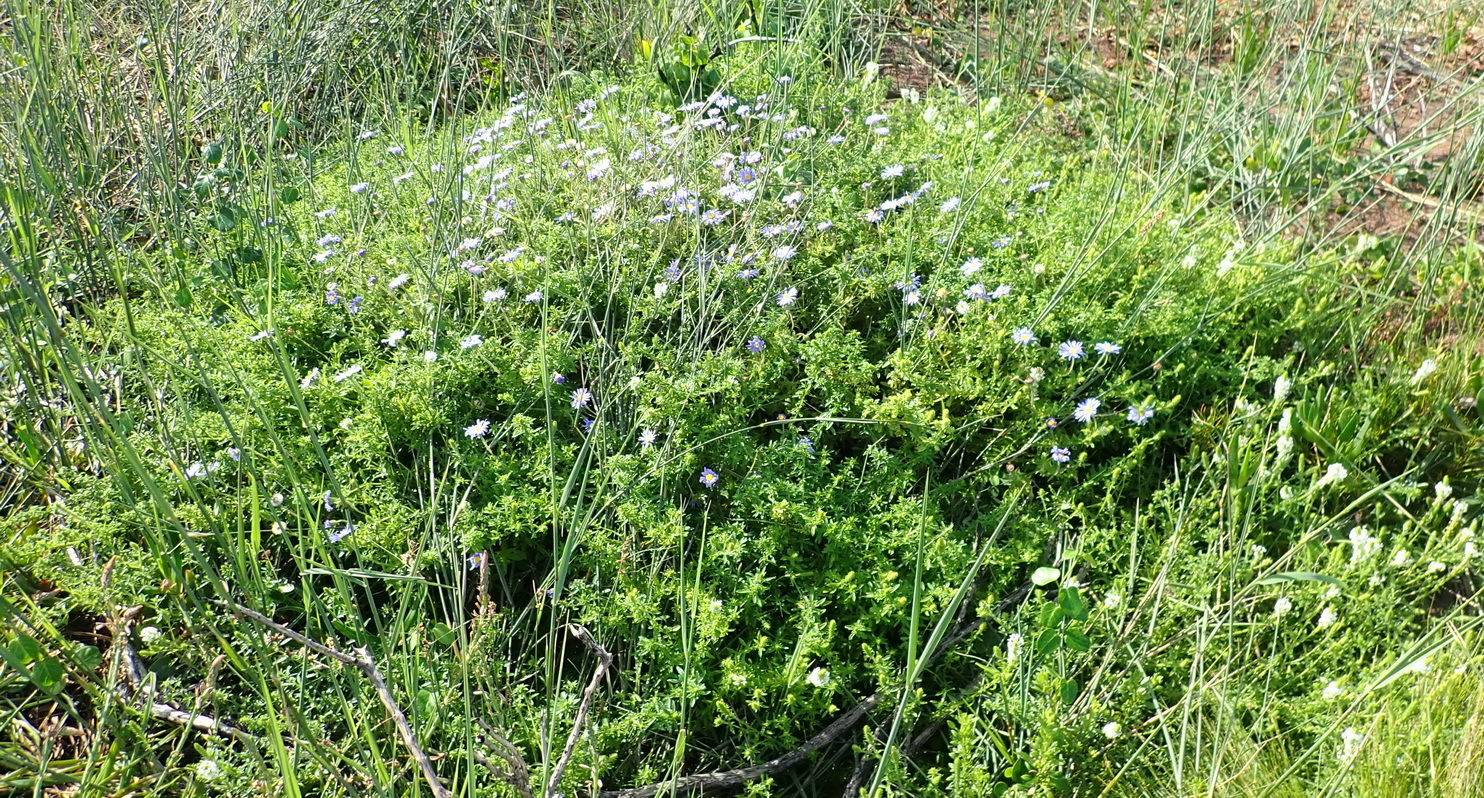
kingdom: Plantae
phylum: Tracheophyta
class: Magnoliopsida
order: Asterales
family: Asteraceae
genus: Felicia
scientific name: Felicia amoena
